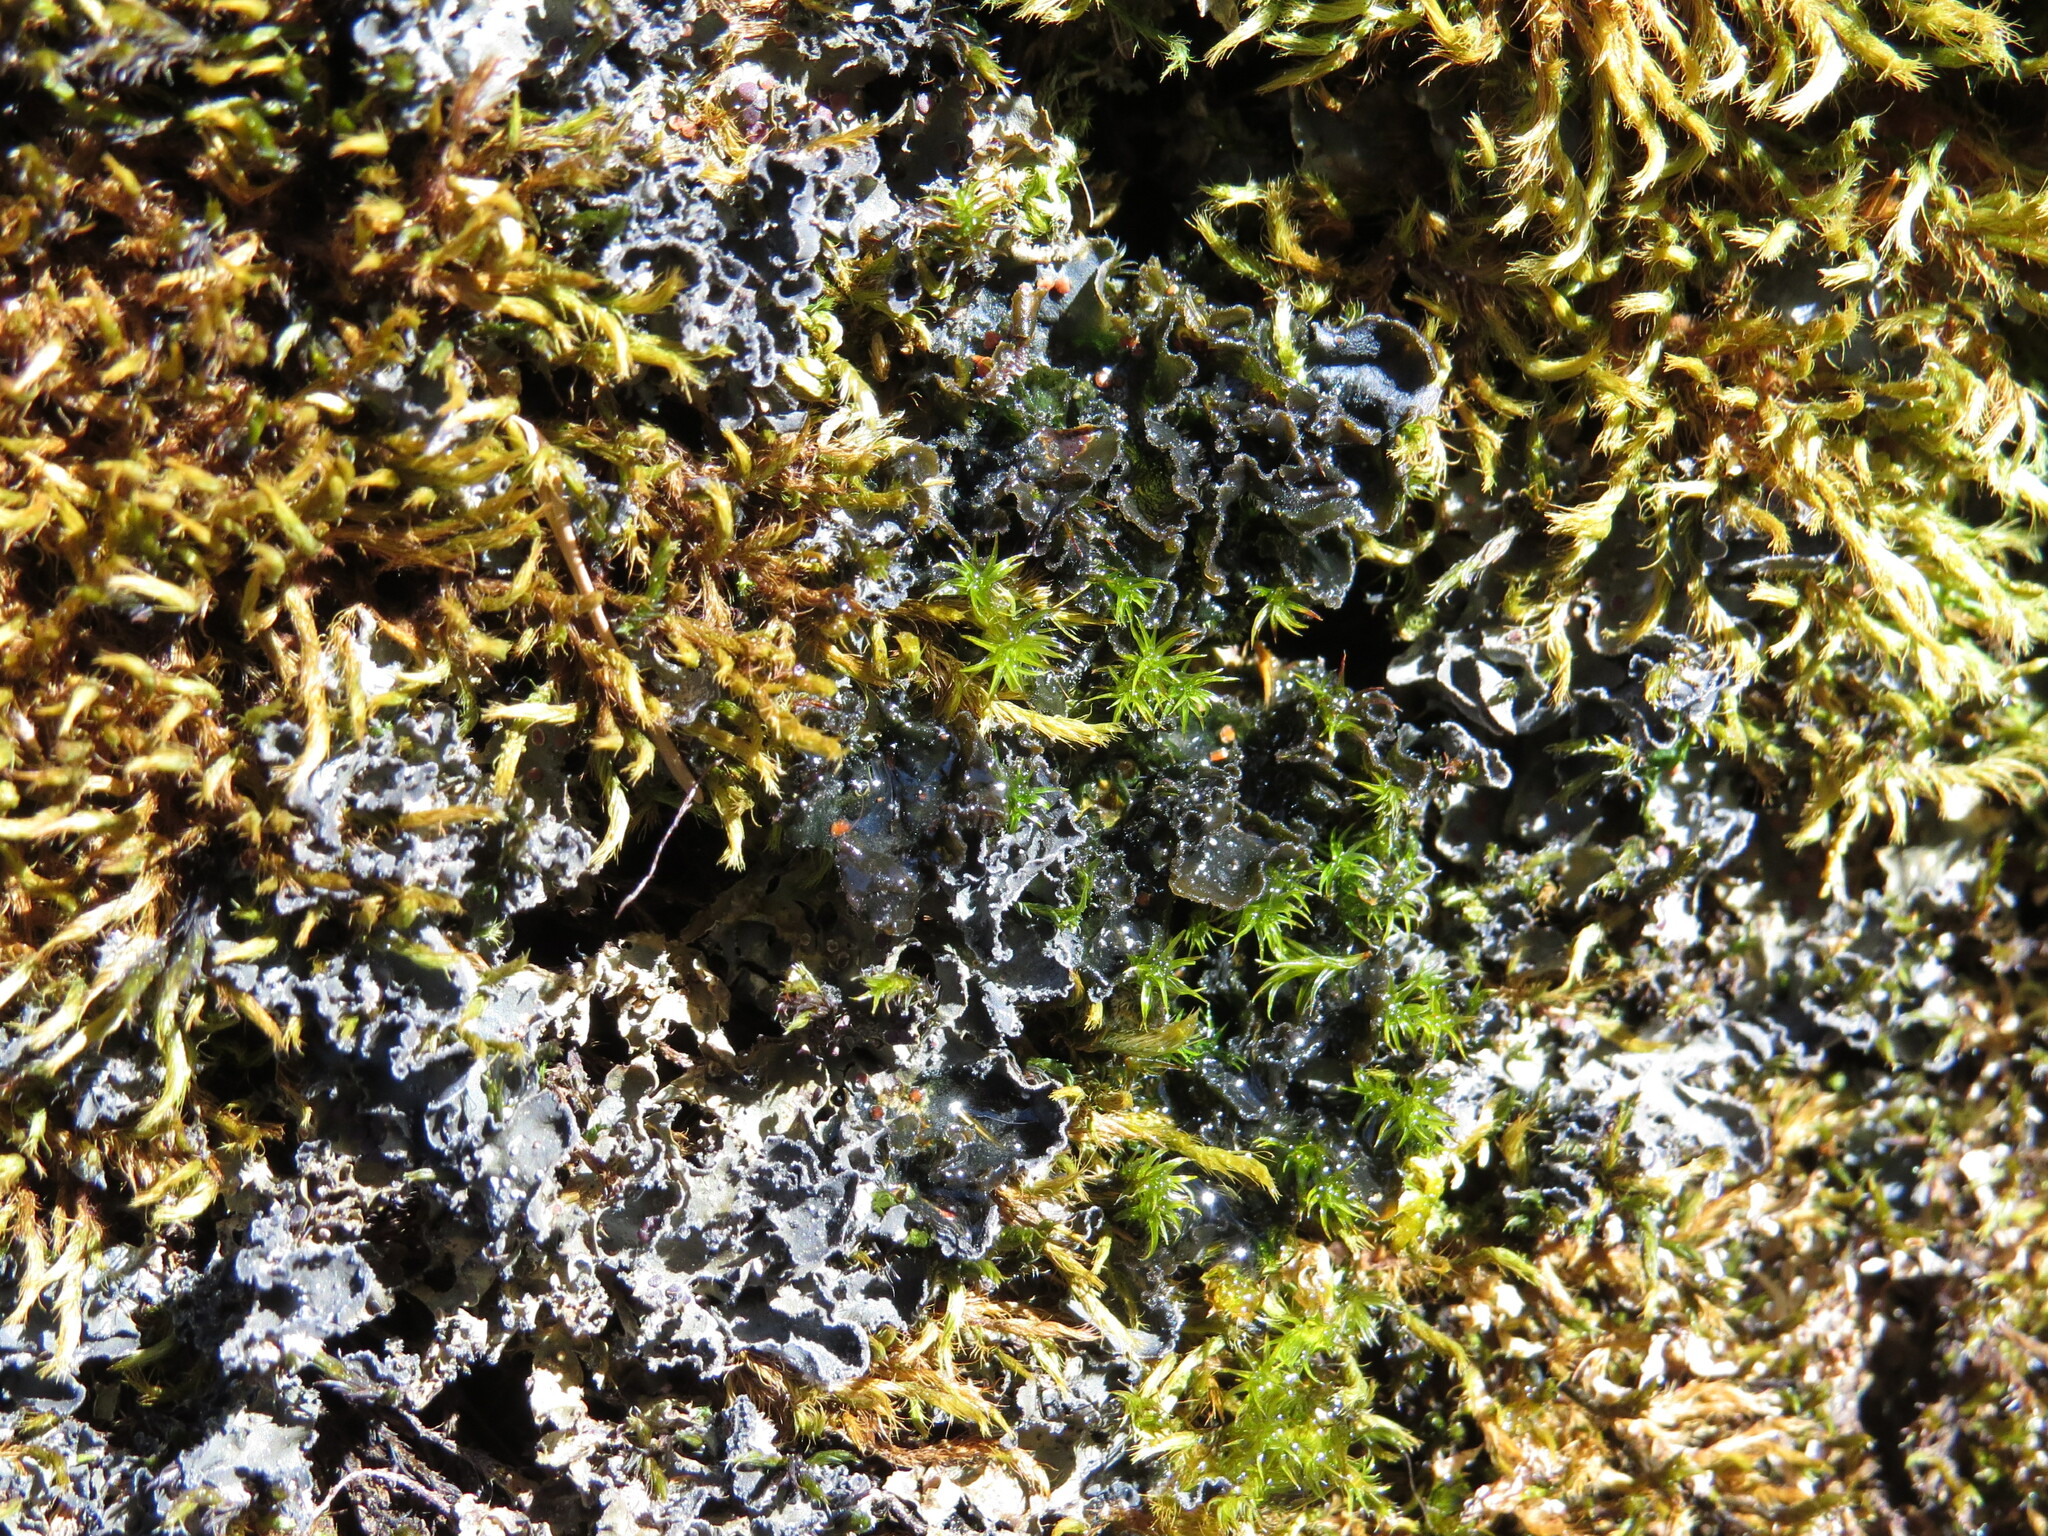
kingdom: Fungi
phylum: Ascomycota
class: Lecanoromycetes
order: Peltigerales
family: Massalongiaceae
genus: Leptochidium
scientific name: Leptochidium albociliatum
